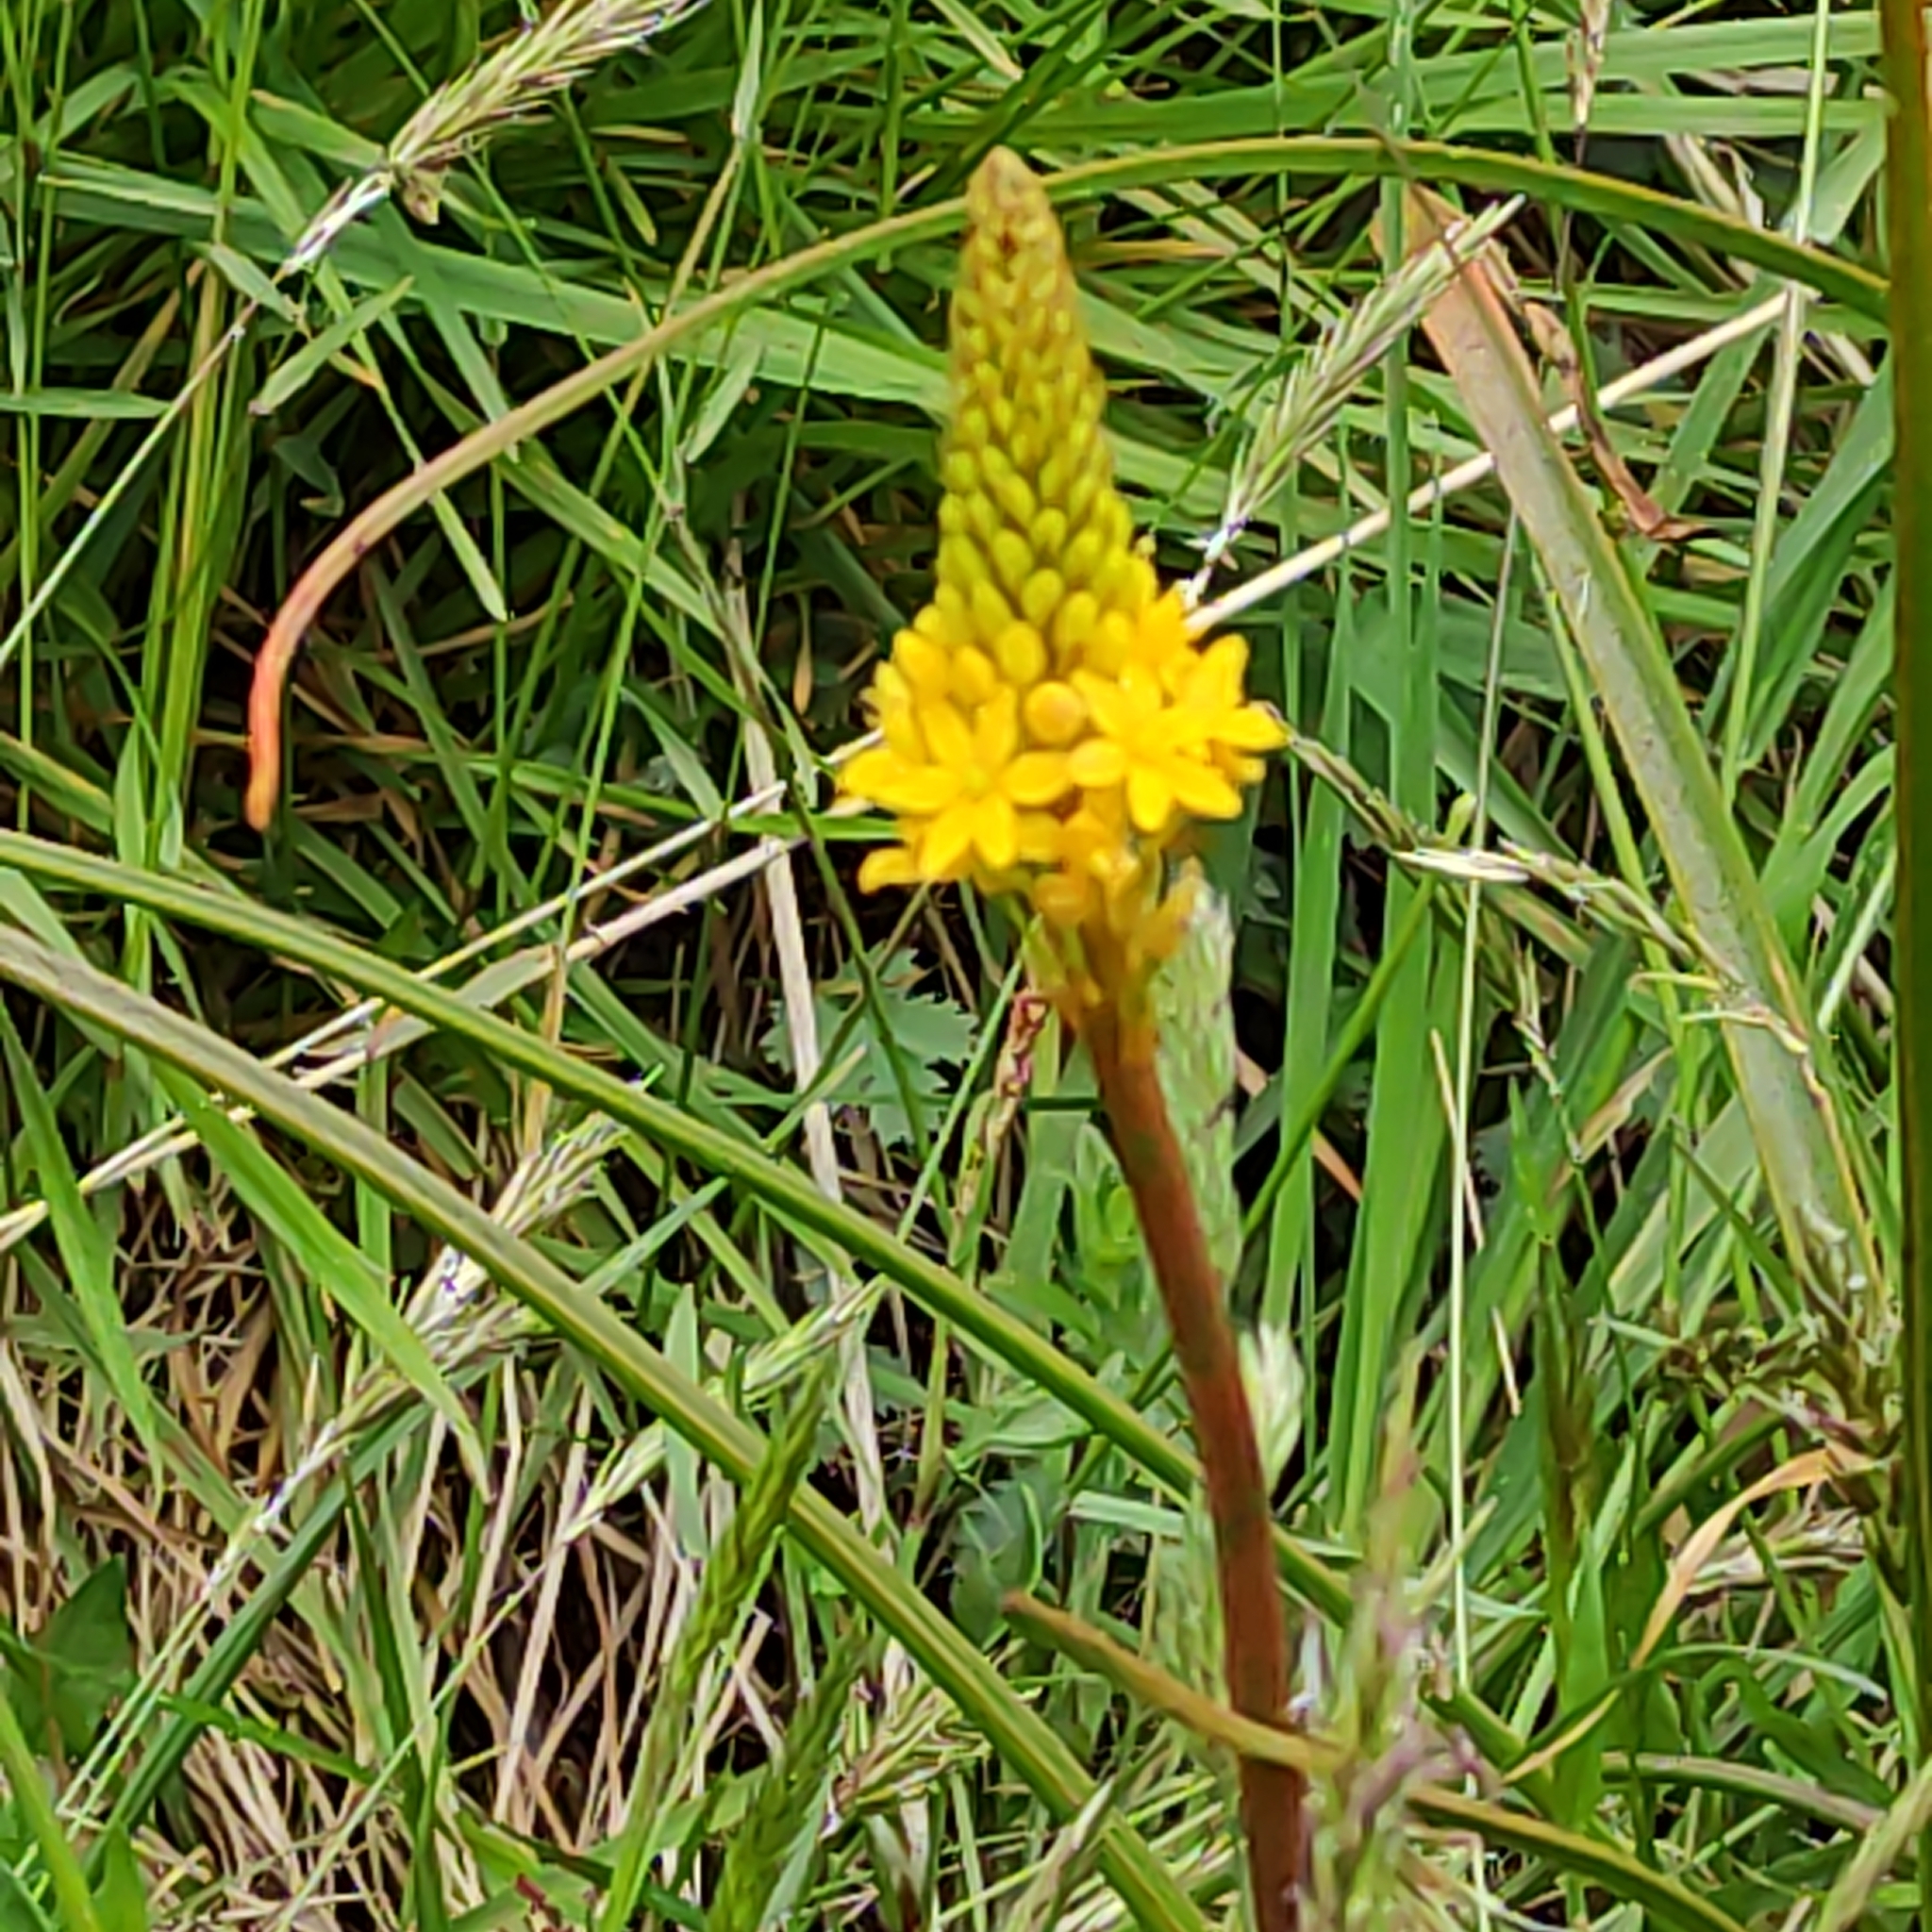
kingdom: Plantae
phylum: Tracheophyta
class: Liliopsida
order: Asparagales
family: Asphodelaceae
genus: Bulbinella
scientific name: Bulbinella angustifolia
